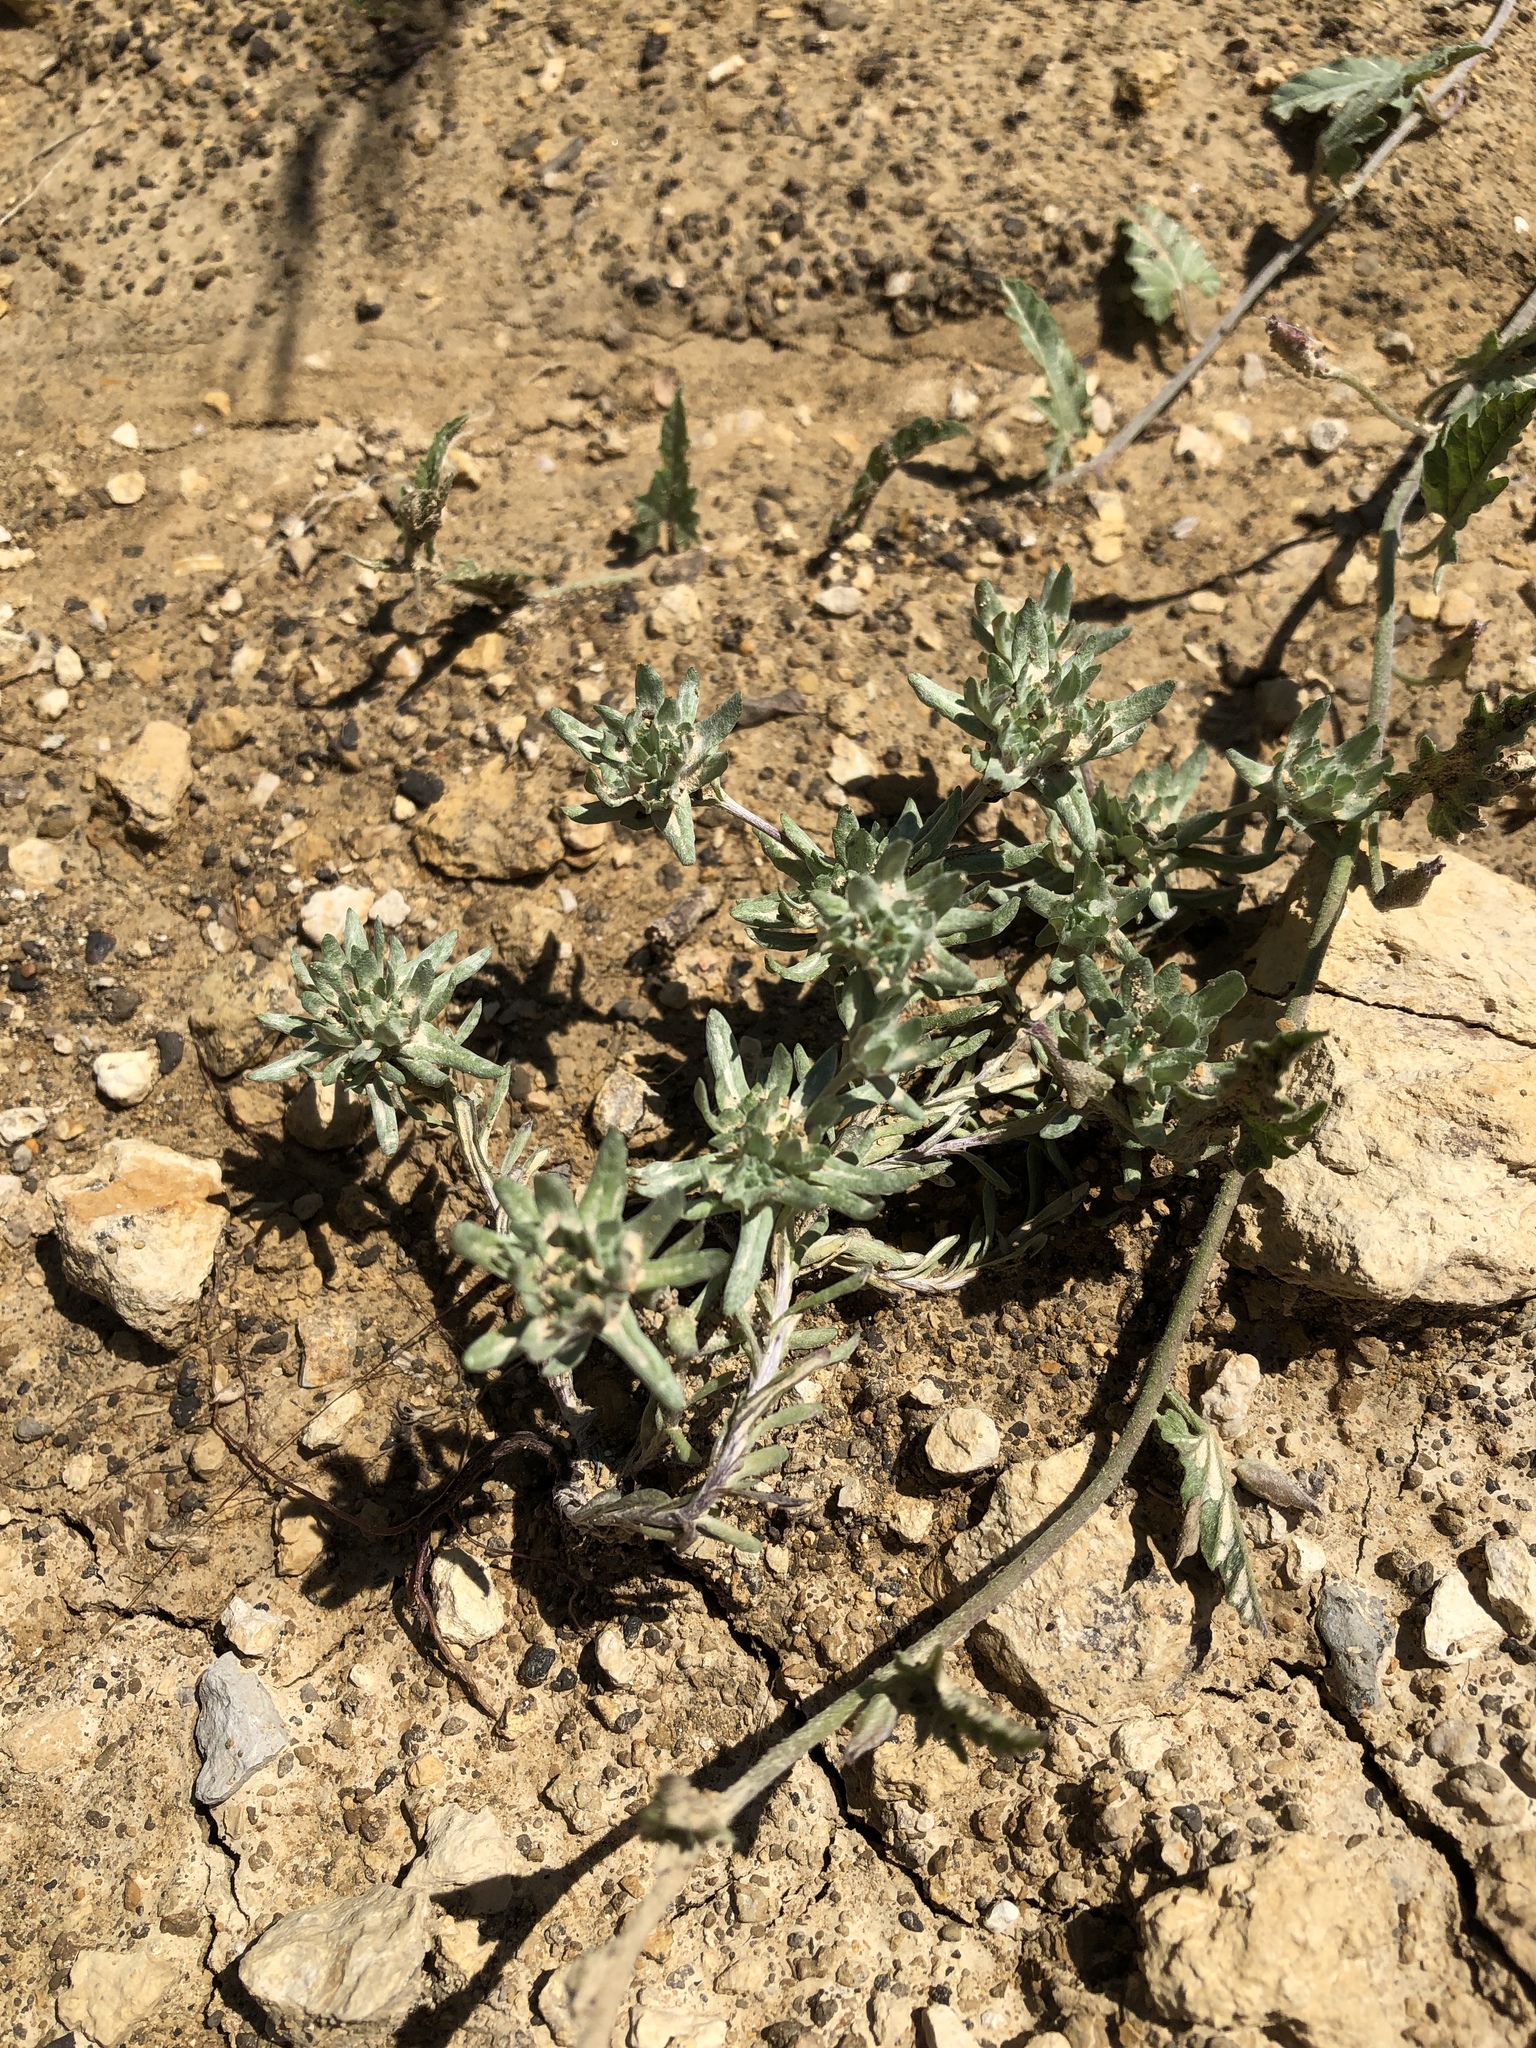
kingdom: Plantae
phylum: Tracheophyta
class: Magnoliopsida
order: Asterales
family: Asteraceae
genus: Diaperia
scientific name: Diaperia prolifera
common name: Big-head rabbit-tobacco
